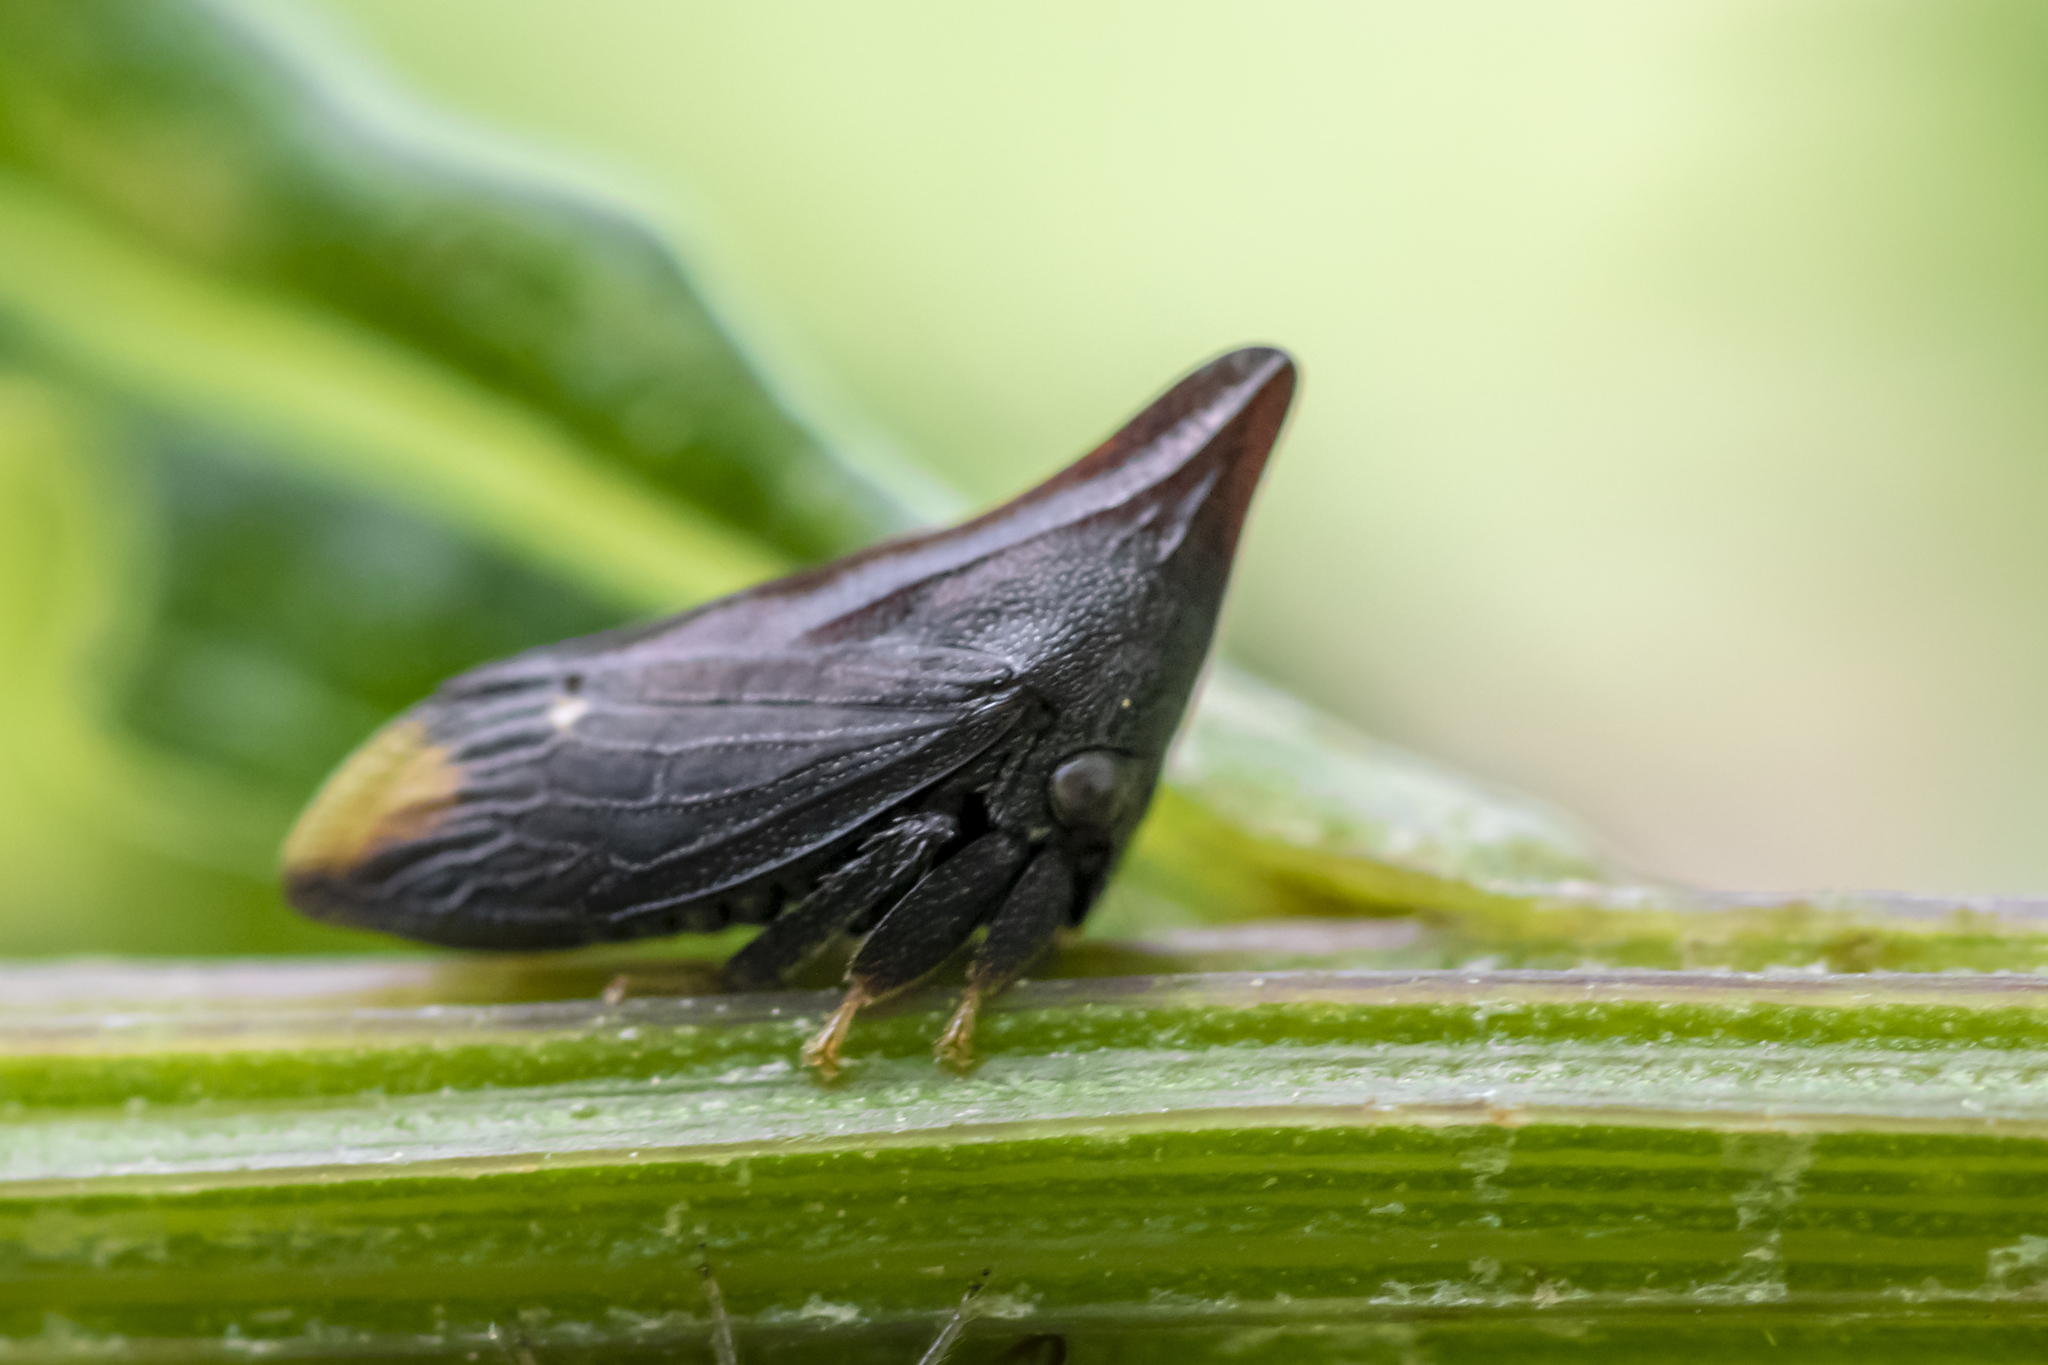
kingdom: Animalia
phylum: Arthropoda
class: Insecta
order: Hemiptera
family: Membracidae
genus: Enchenopa
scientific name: Enchenopa monoceros
